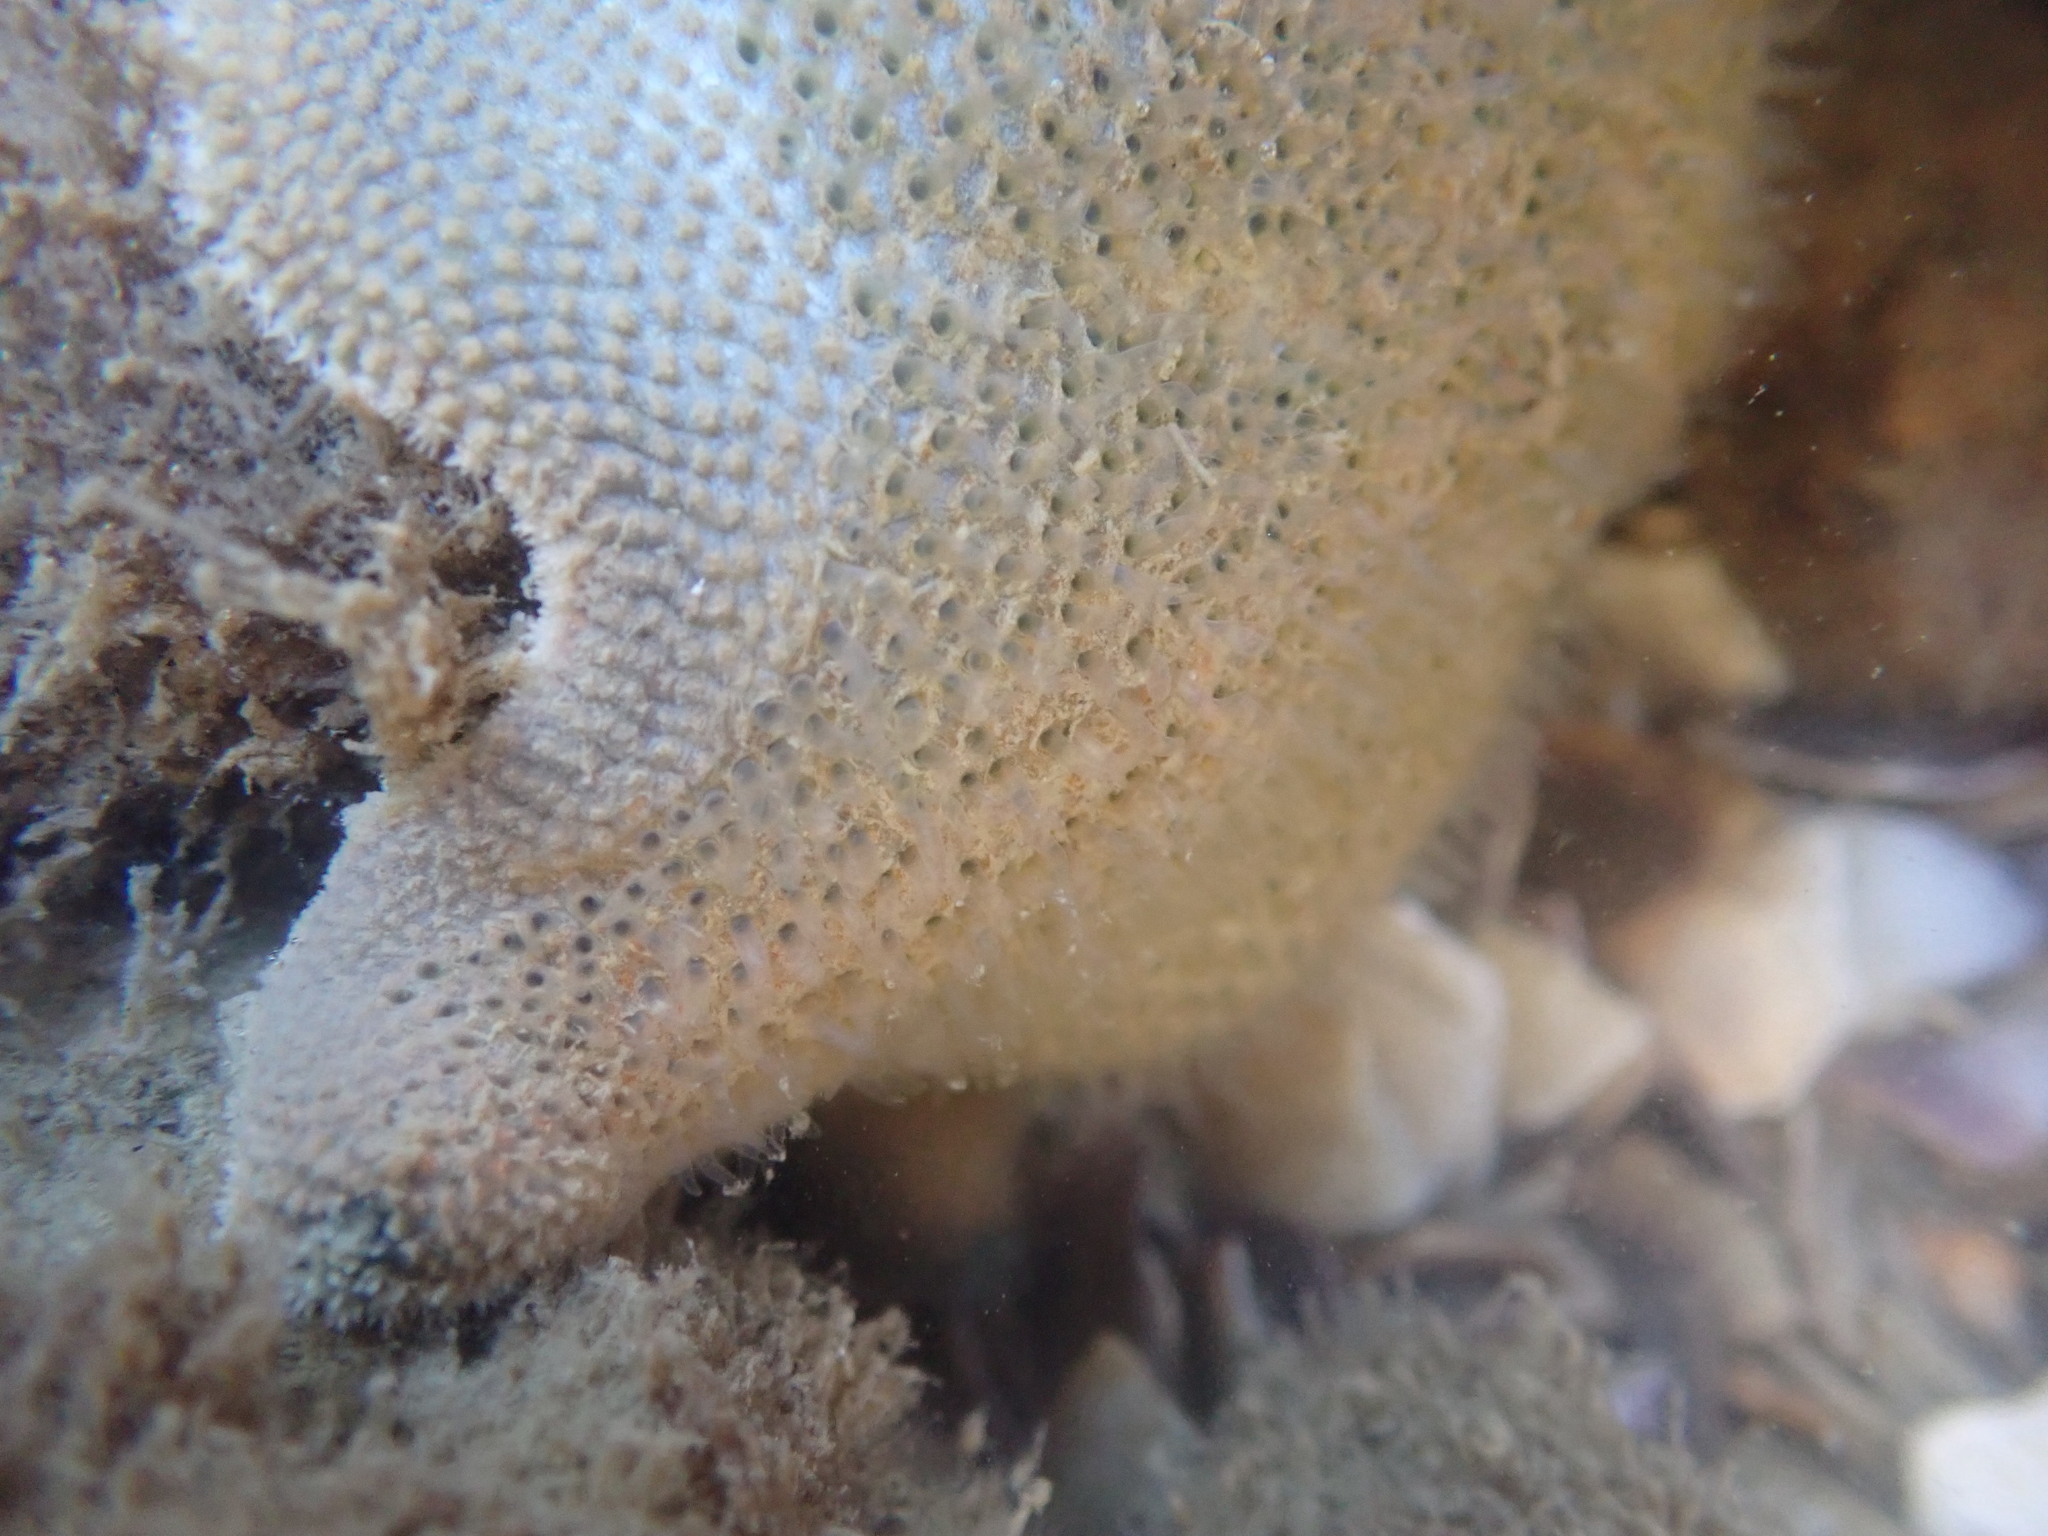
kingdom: Animalia
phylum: Echinodermata
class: Asteroidea
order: Valvatida
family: Asterinidae
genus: Patiriella
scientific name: Patiriella regularis
